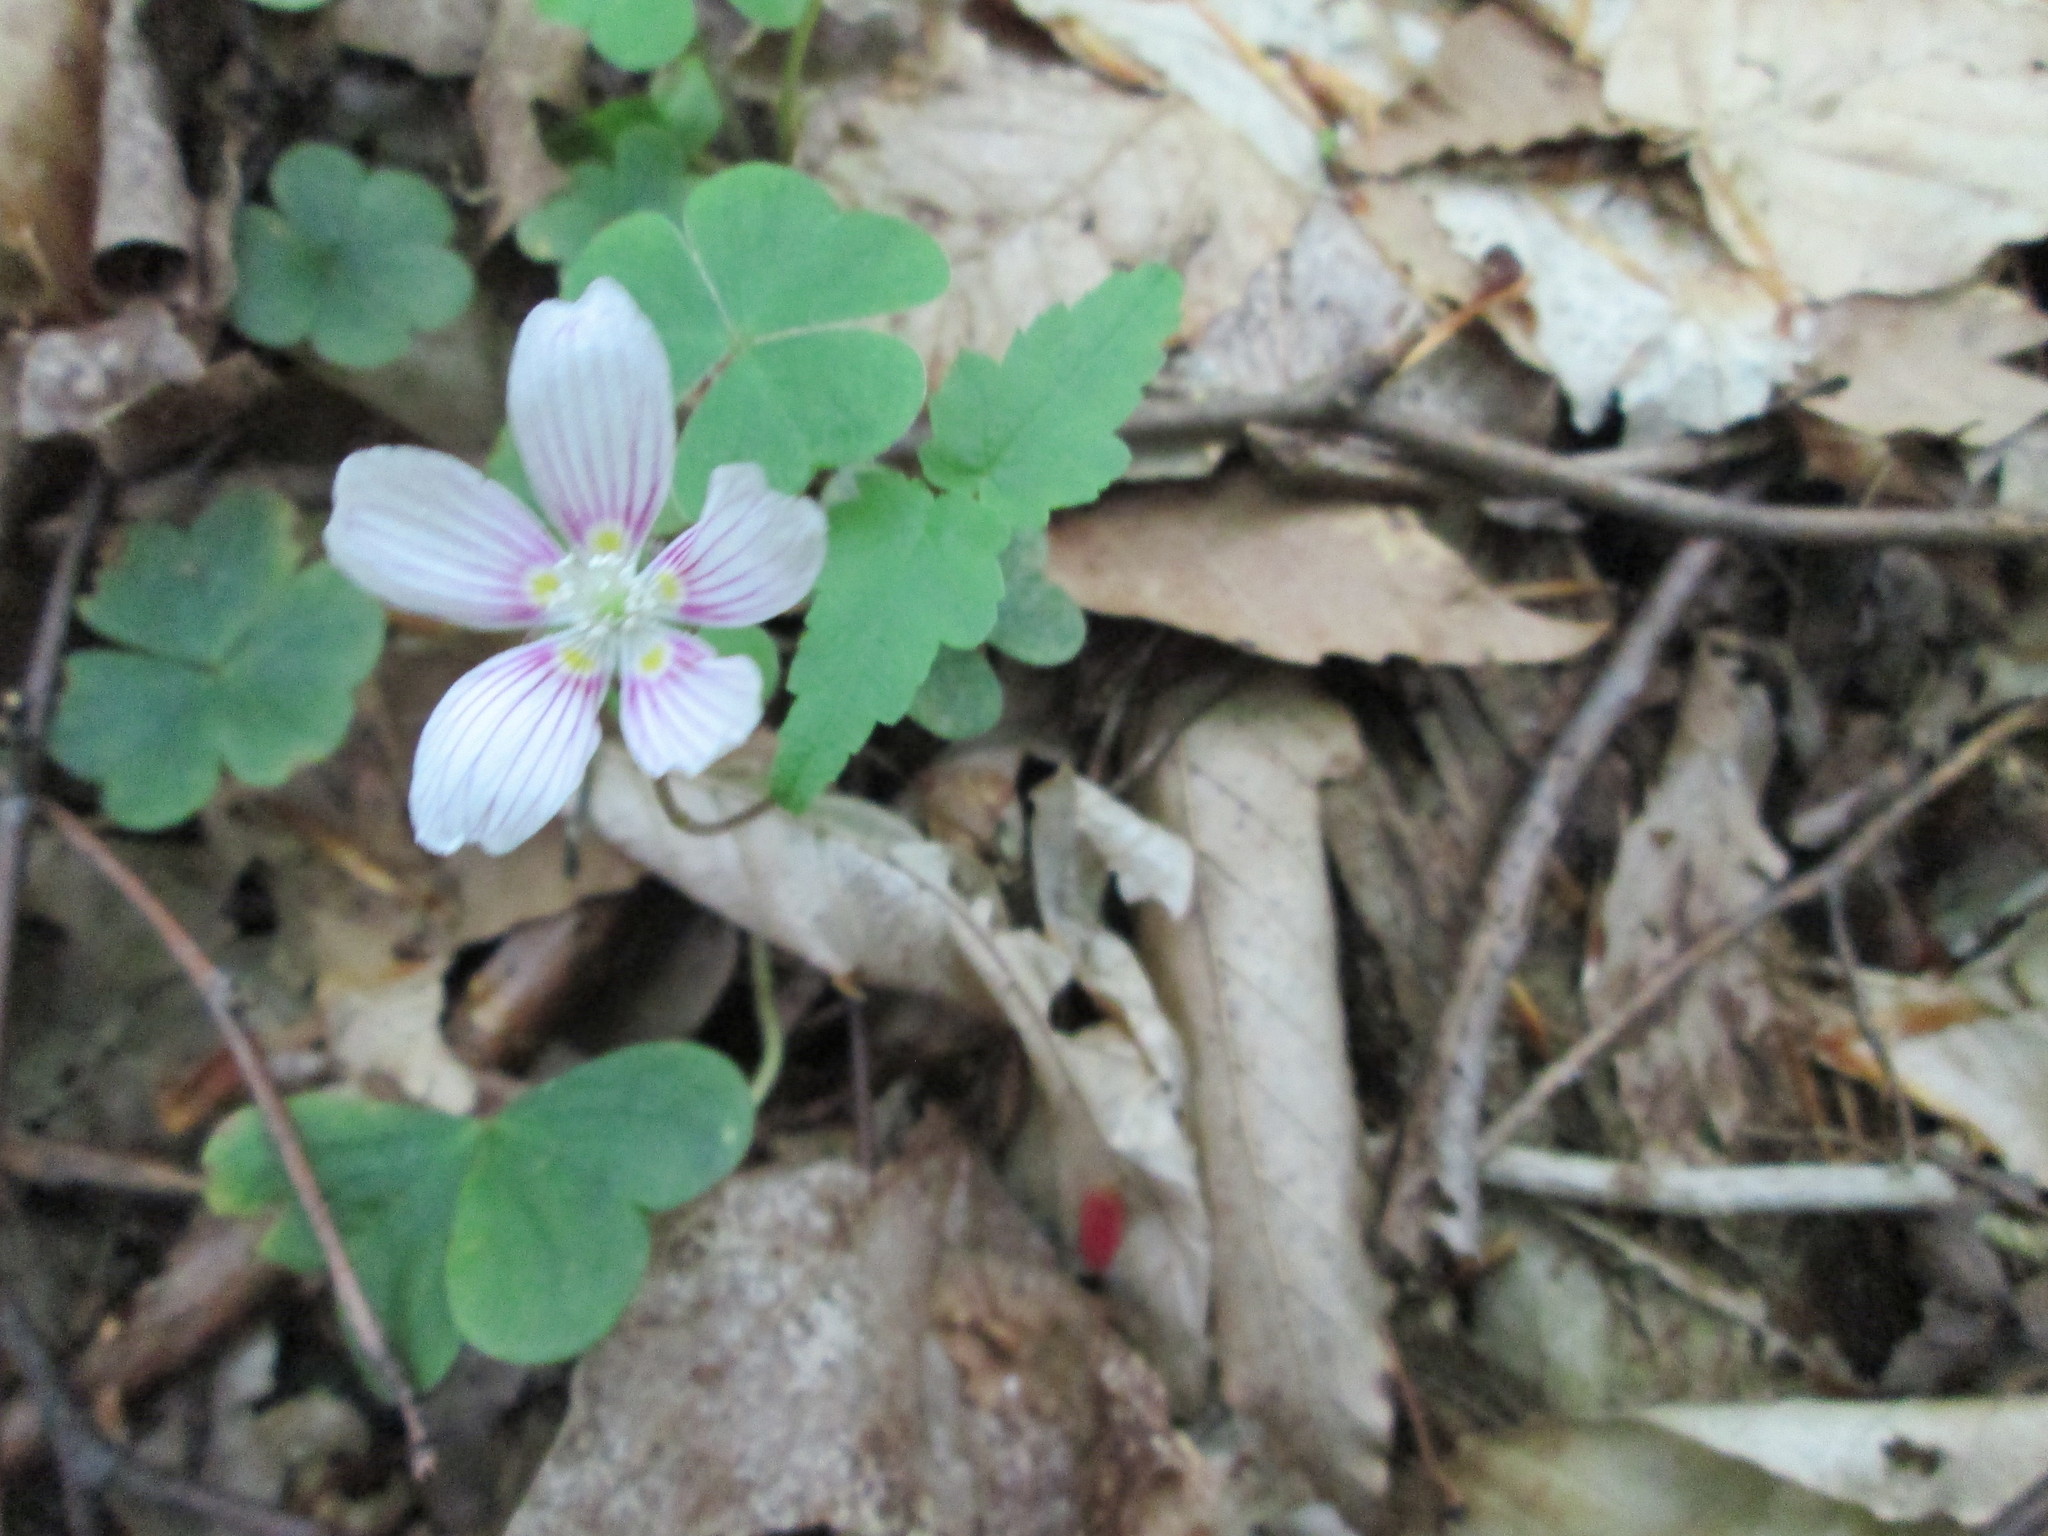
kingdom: Plantae
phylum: Tracheophyta
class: Magnoliopsida
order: Oxalidales
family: Oxalidaceae
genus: Oxalis
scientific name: Oxalis montana
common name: American wood-sorrel
